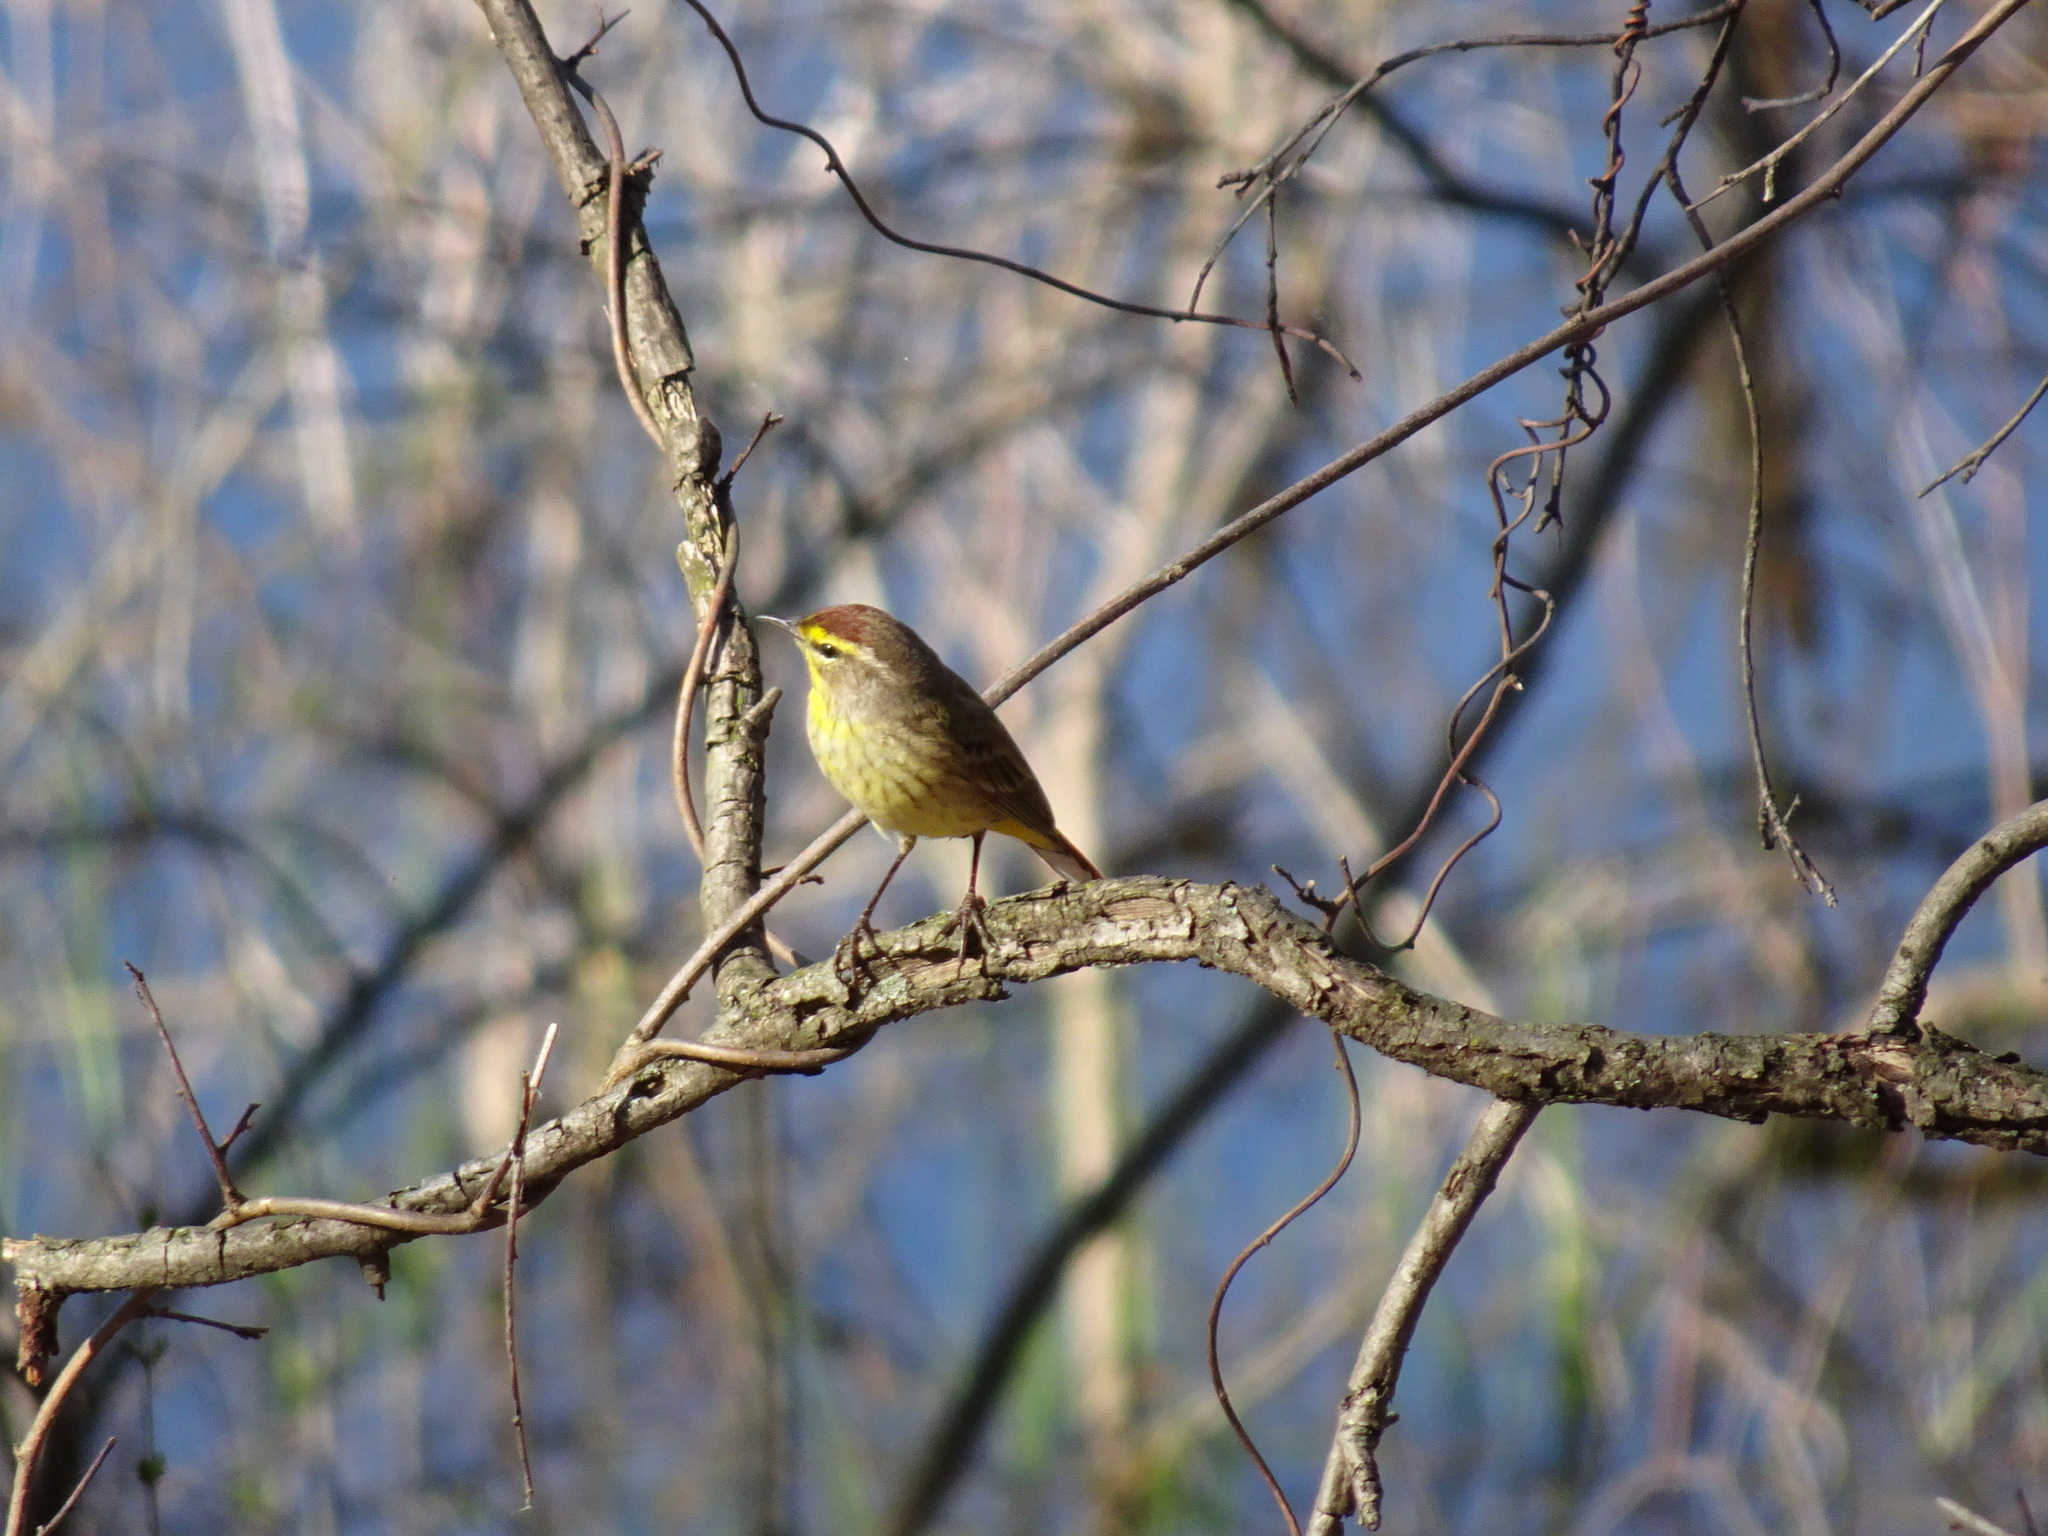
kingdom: Animalia
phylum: Chordata
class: Aves
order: Passeriformes
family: Parulidae
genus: Setophaga
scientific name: Setophaga palmarum
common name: Palm warbler
